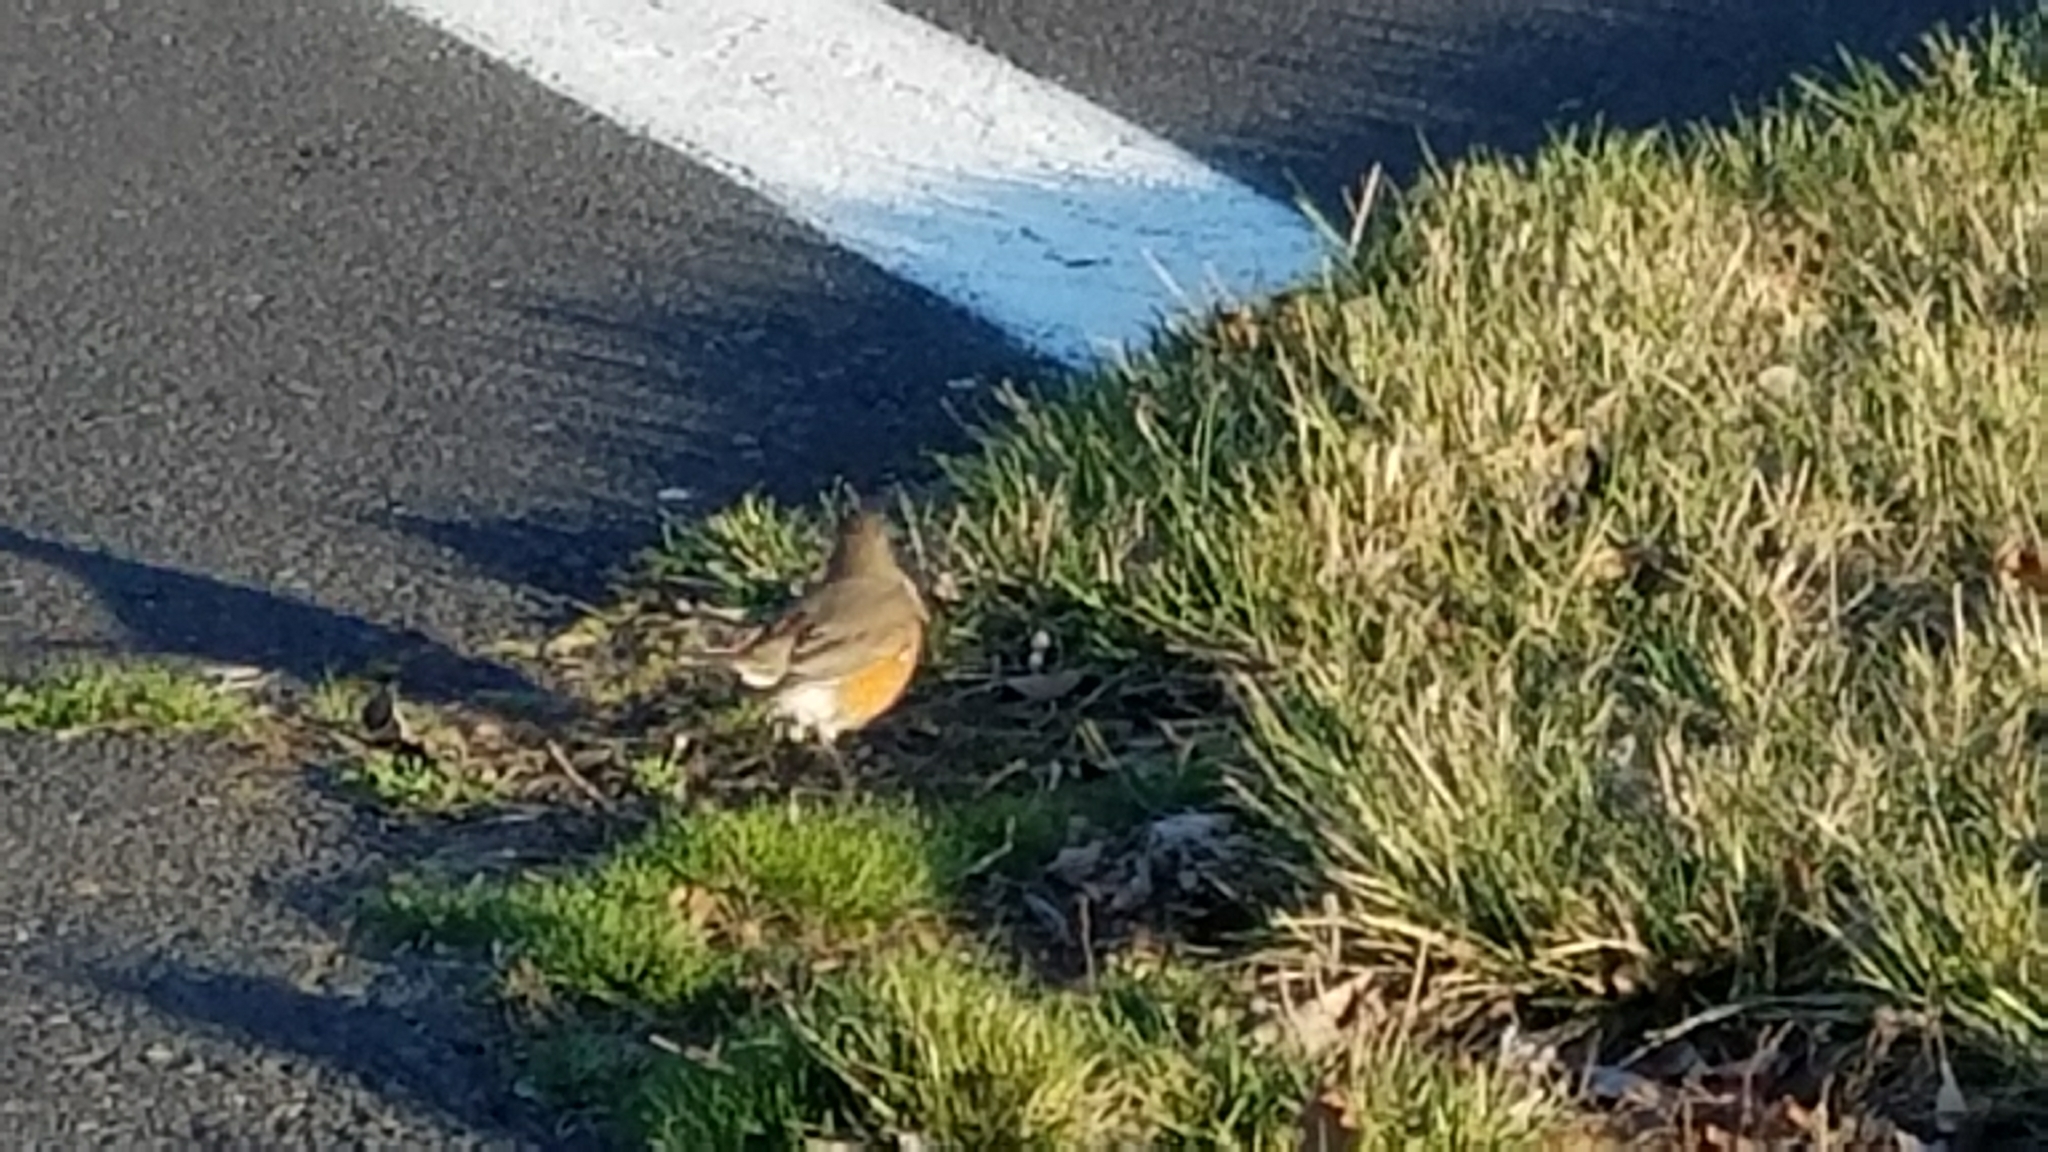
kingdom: Animalia
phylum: Chordata
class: Aves
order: Passeriformes
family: Turdidae
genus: Turdus
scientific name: Turdus migratorius
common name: American robin
